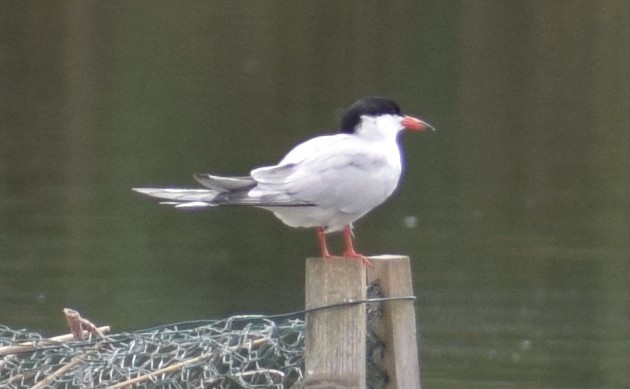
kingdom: Animalia
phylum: Chordata
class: Aves
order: Charadriiformes
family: Laridae
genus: Sterna
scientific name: Sterna hirundo
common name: Common tern
